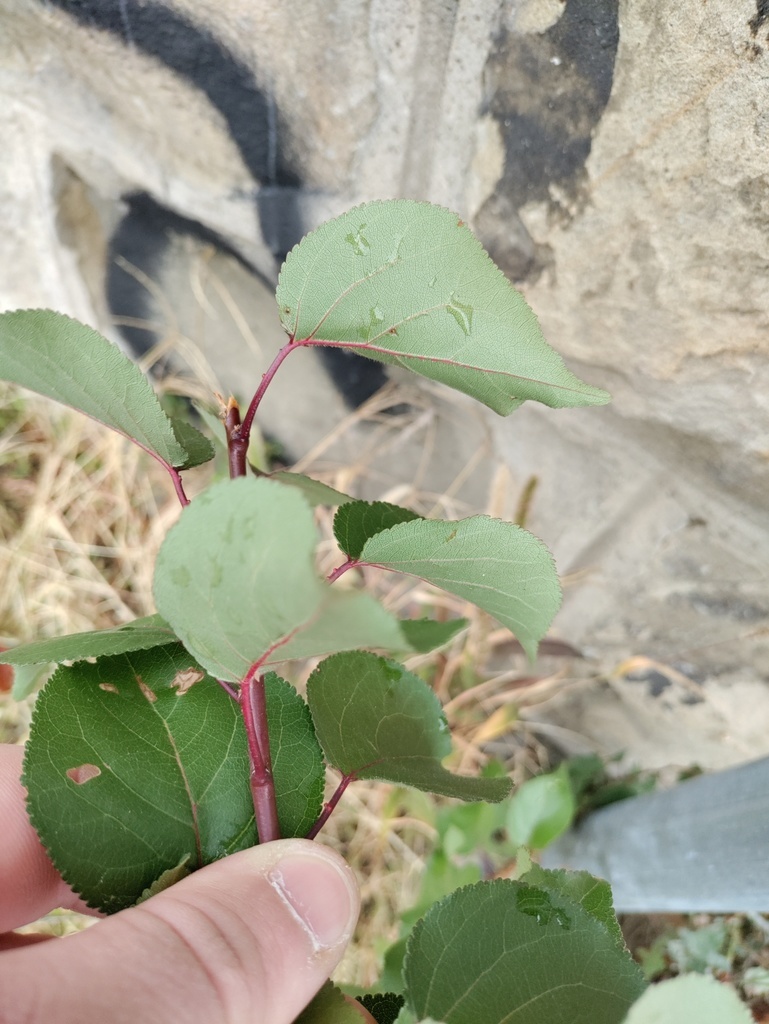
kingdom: Plantae
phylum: Tracheophyta
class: Magnoliopsida
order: Rosales
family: Rosaceae
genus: Prunus
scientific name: Prunus armeniaca
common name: Apricot
